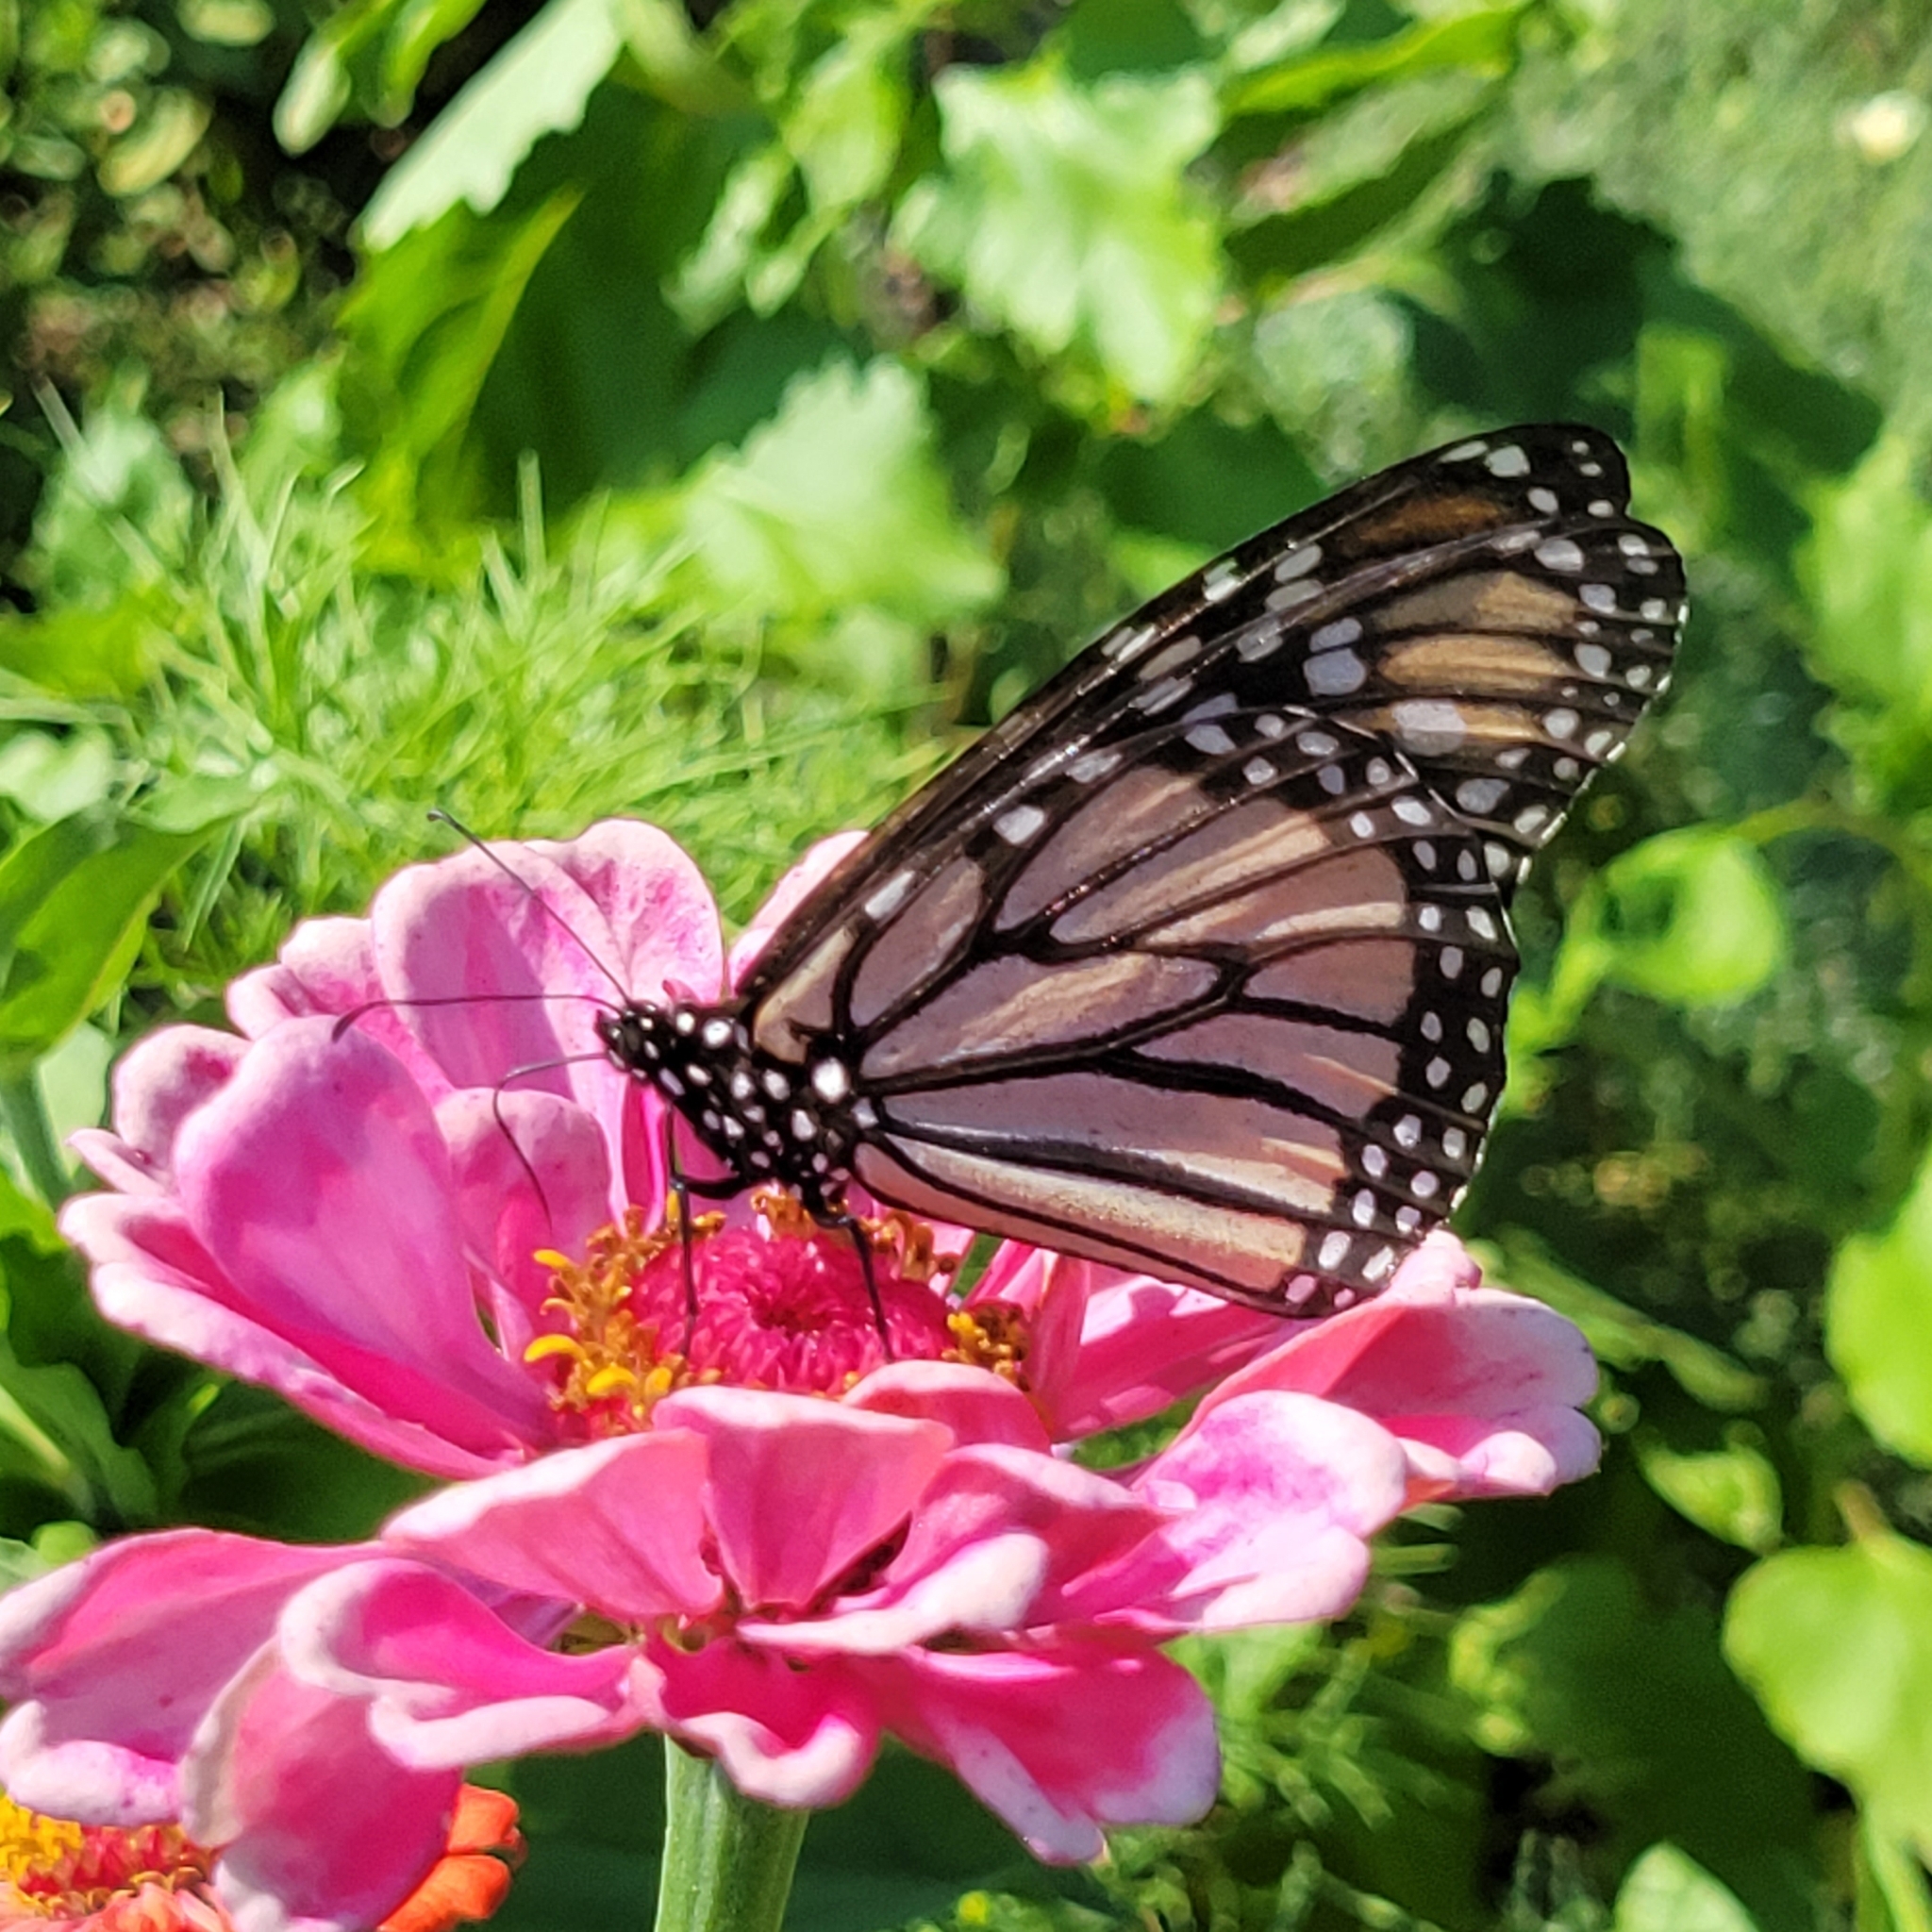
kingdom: Animalia
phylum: Arthropoda
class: Insecta
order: Lepidoptera
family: Nymphalidae
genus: Danaus
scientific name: Danaus plexippus
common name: Monarch
